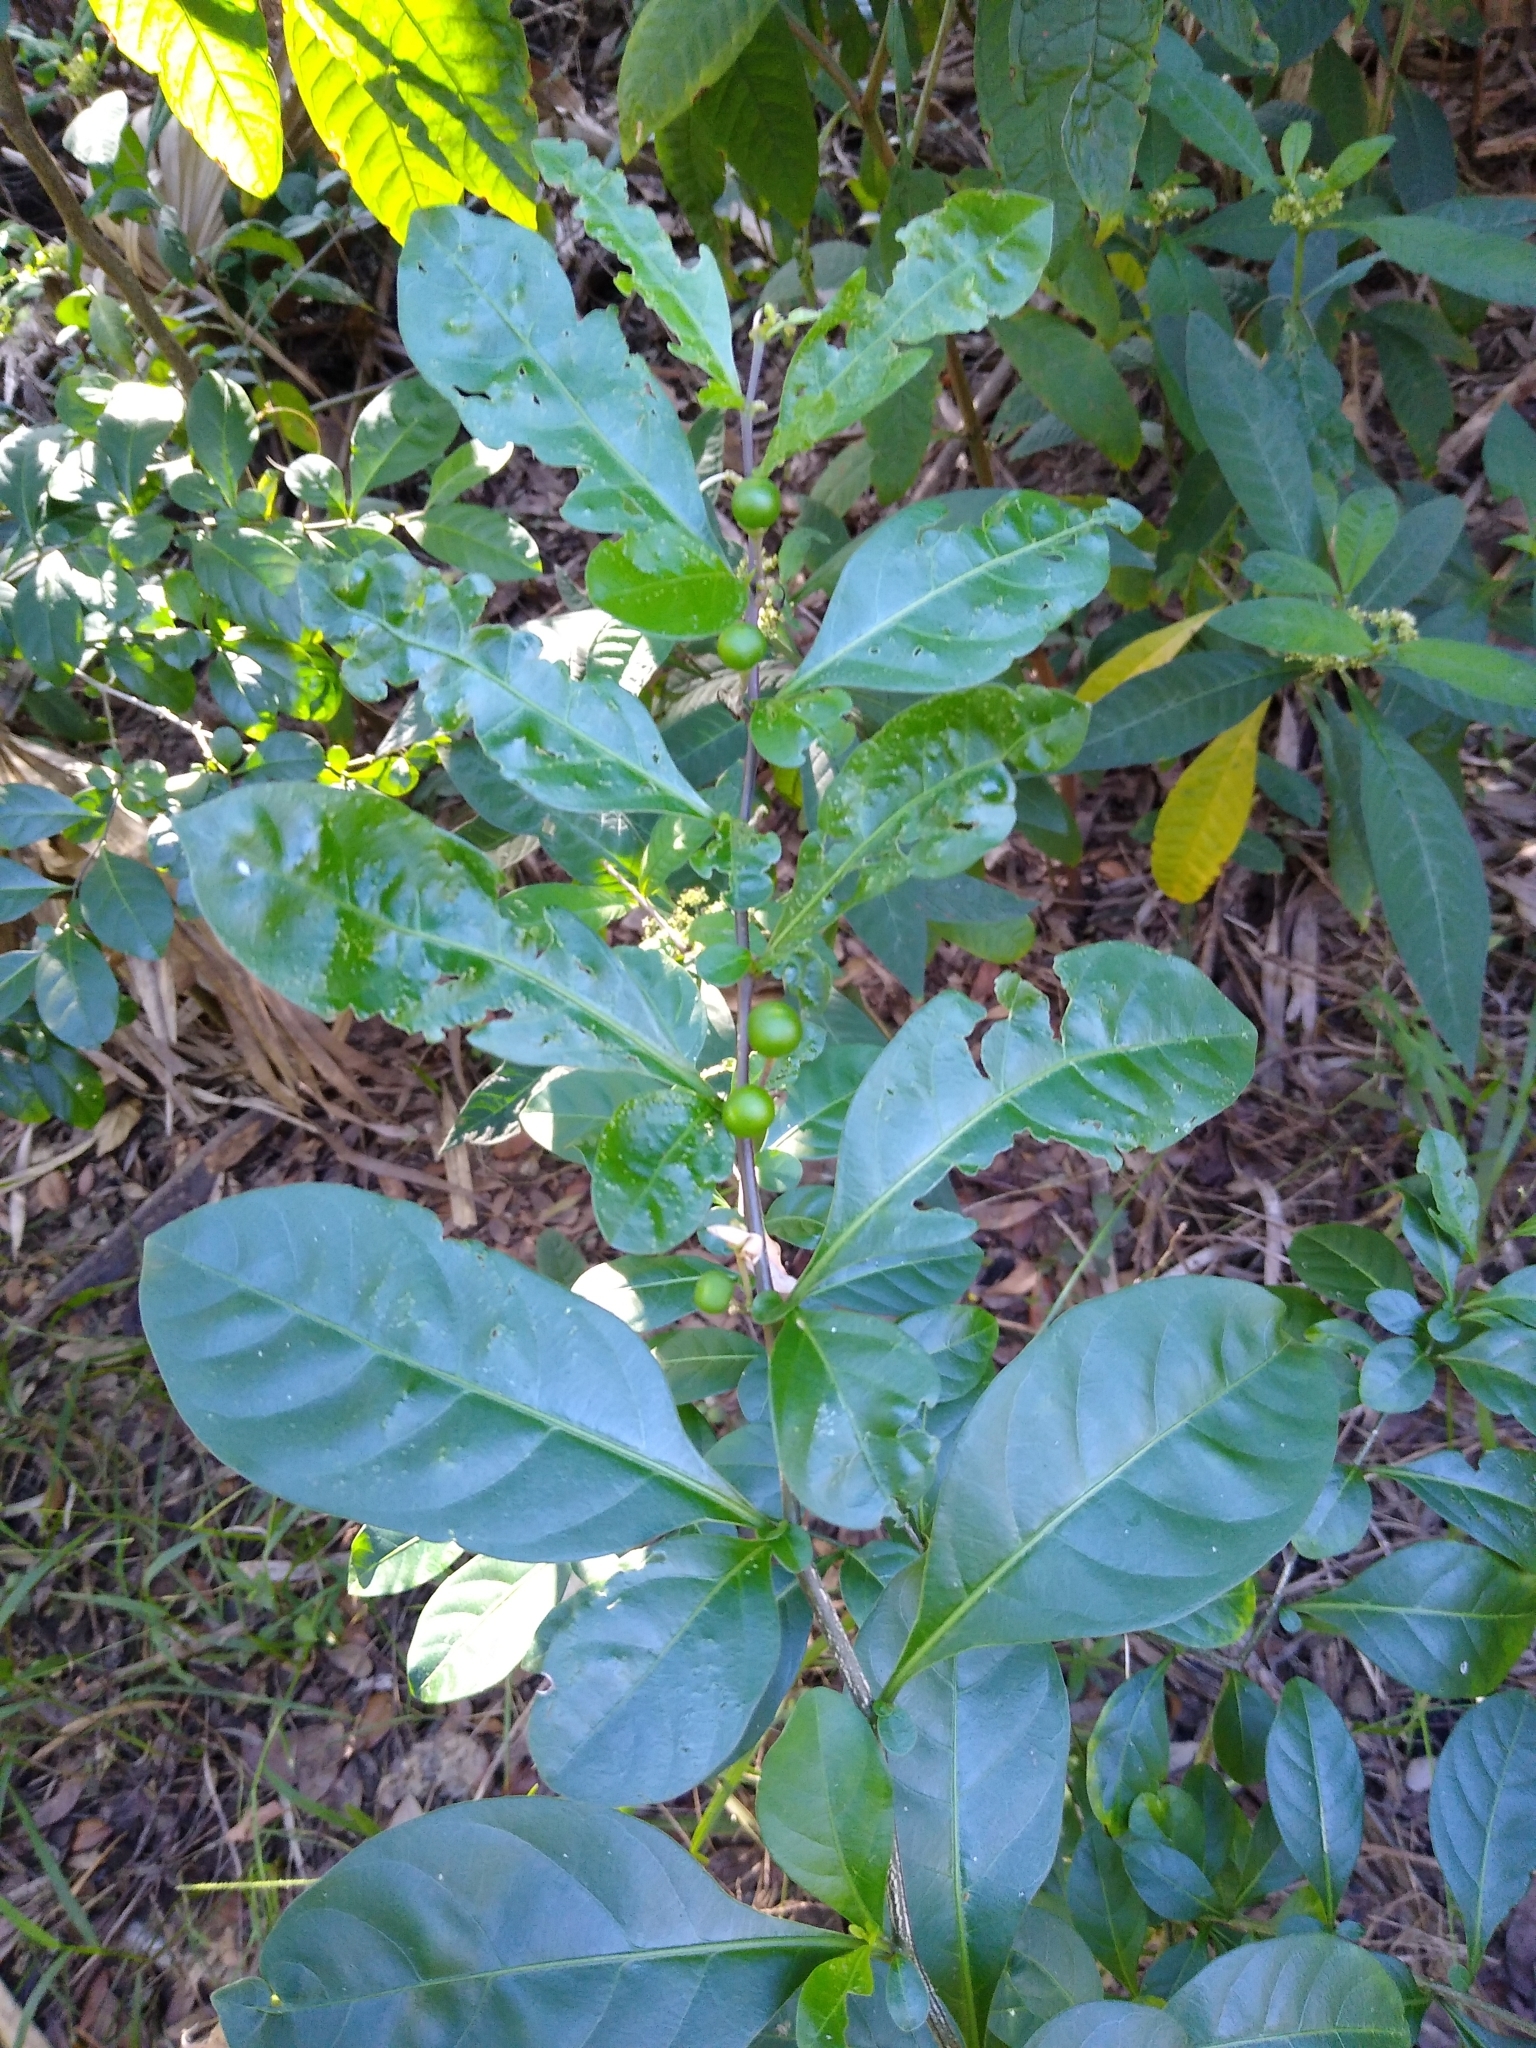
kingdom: Plantae
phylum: Tracheophyta
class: Magnoliopsida
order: Solanales
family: Solanaceae
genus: Solanum
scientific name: Solanum diphyllum
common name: Twoleaf nightshade
